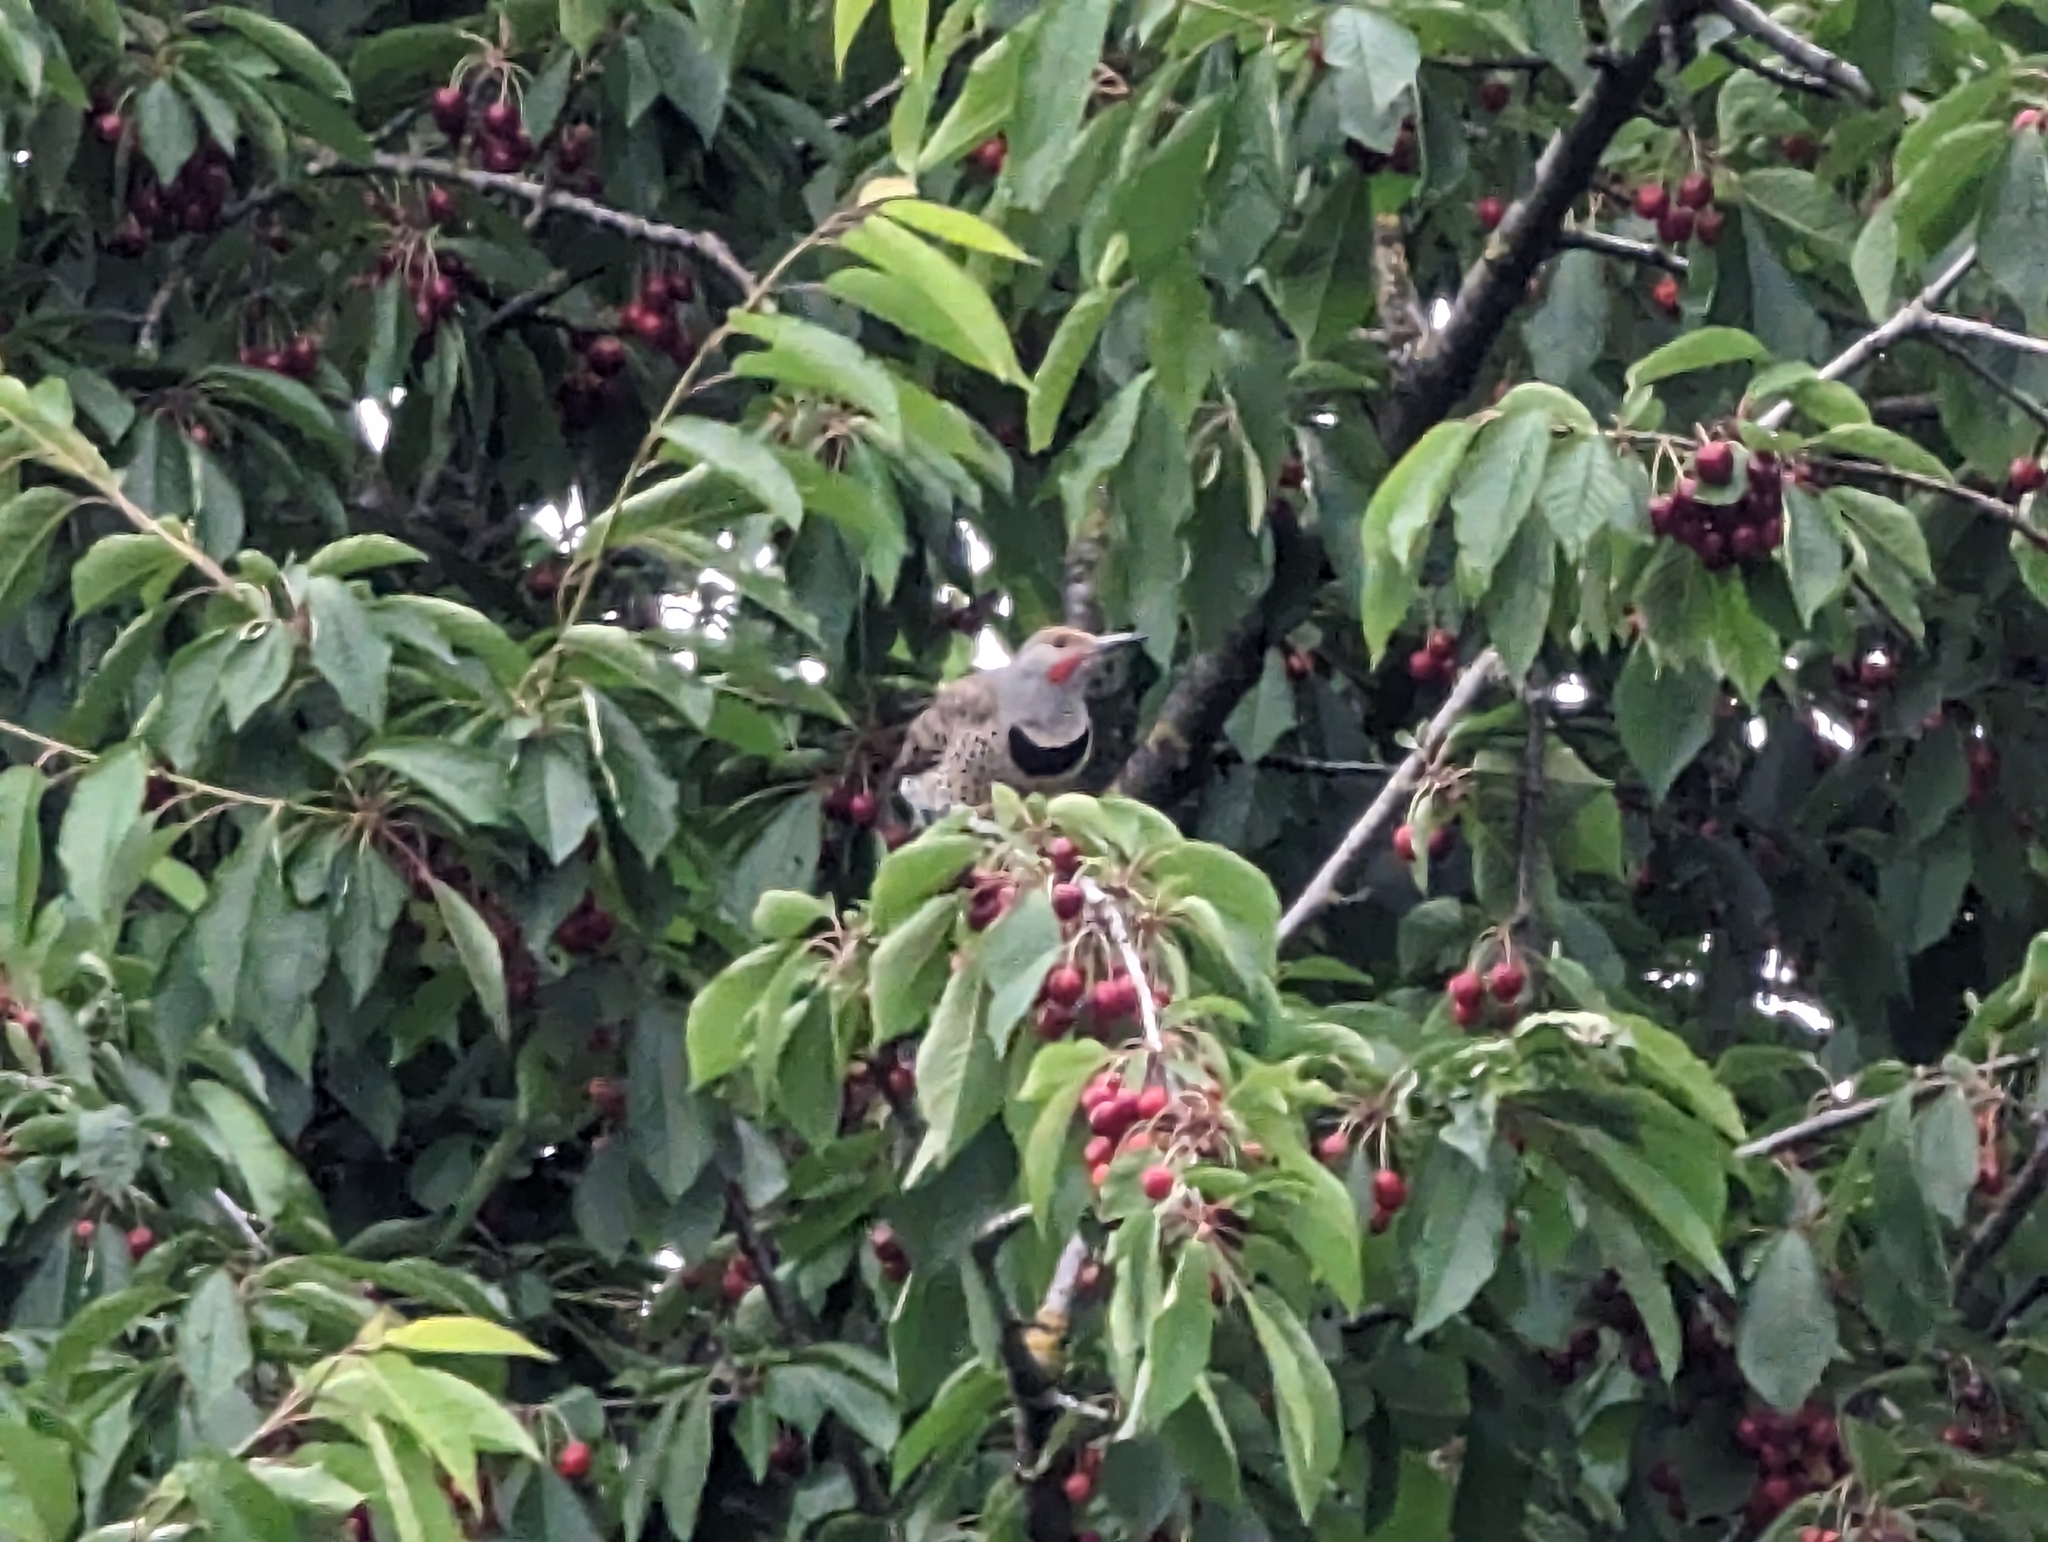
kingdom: Animalia
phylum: Chordata
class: Aves
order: Piciformes
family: Picidae
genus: Colaptes
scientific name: Colaptes auratus
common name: Northern flicker
